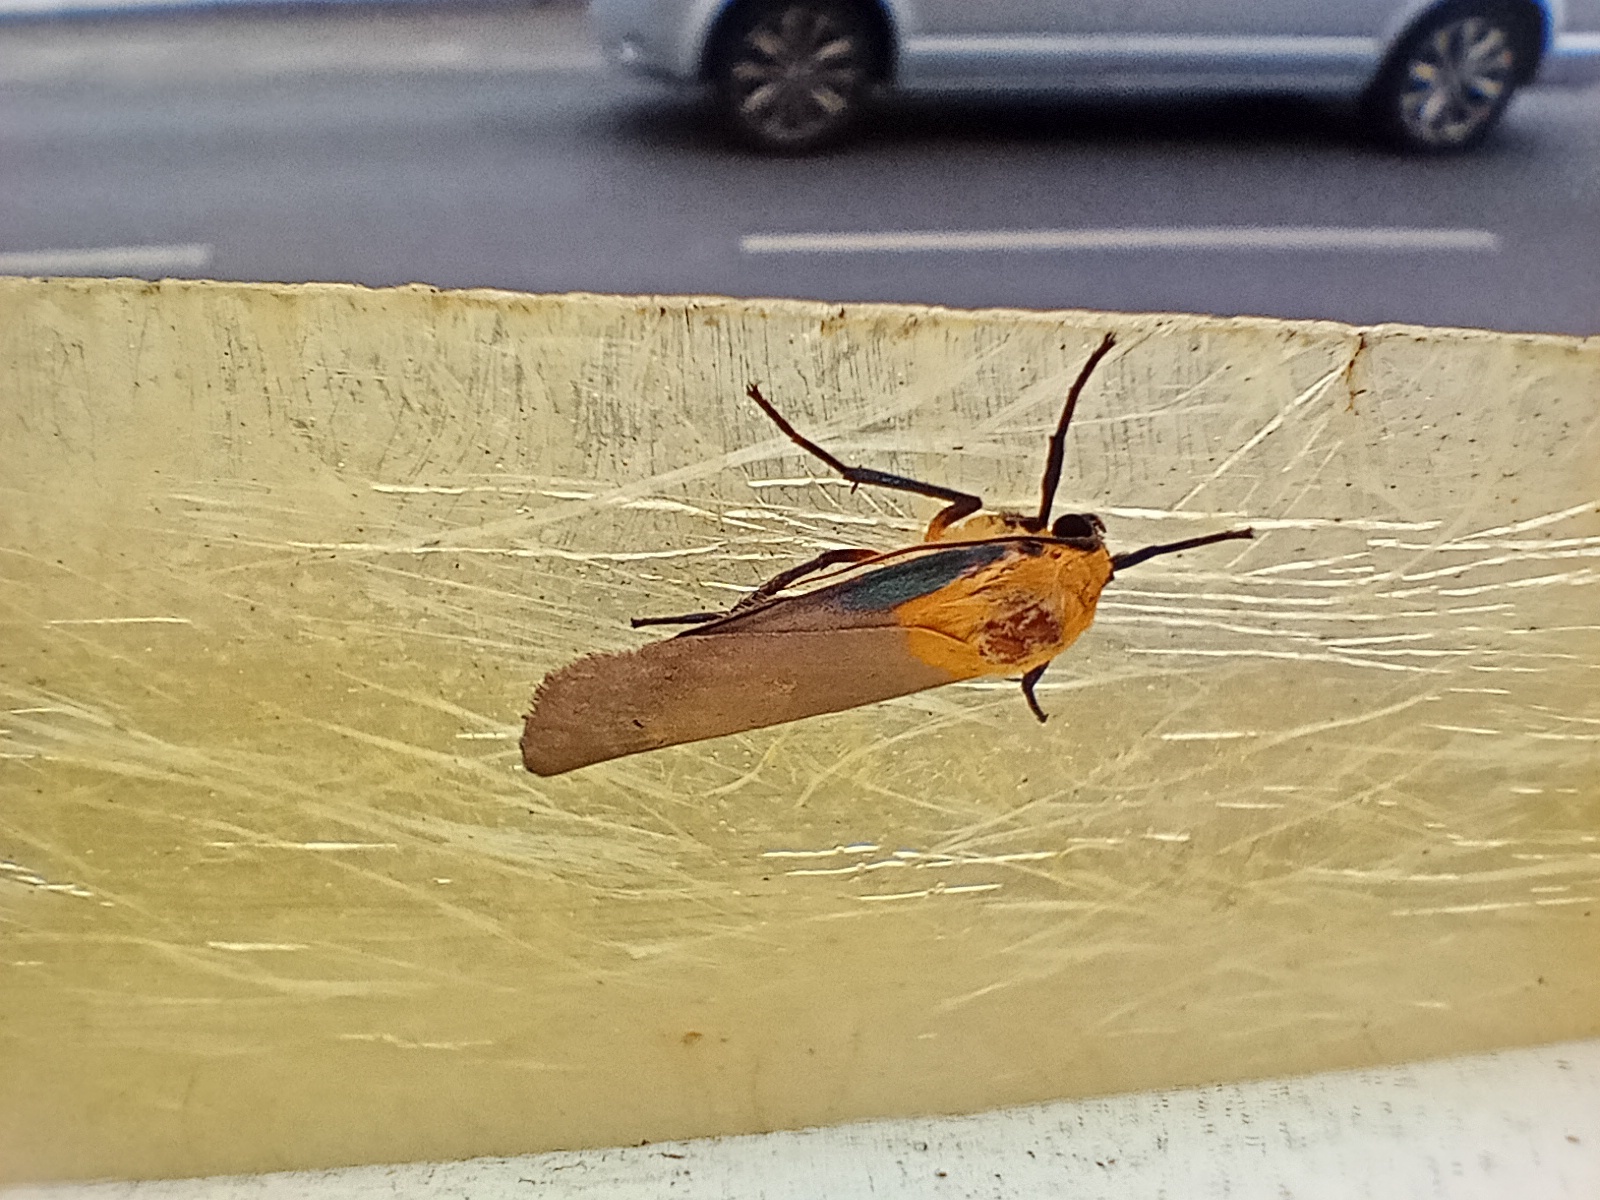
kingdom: Animalia
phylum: Arthropoda
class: Insecta
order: Lepidoptera
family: Erebidae
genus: Lithosia
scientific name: Lithosia quadra
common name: Four-spotted footman
